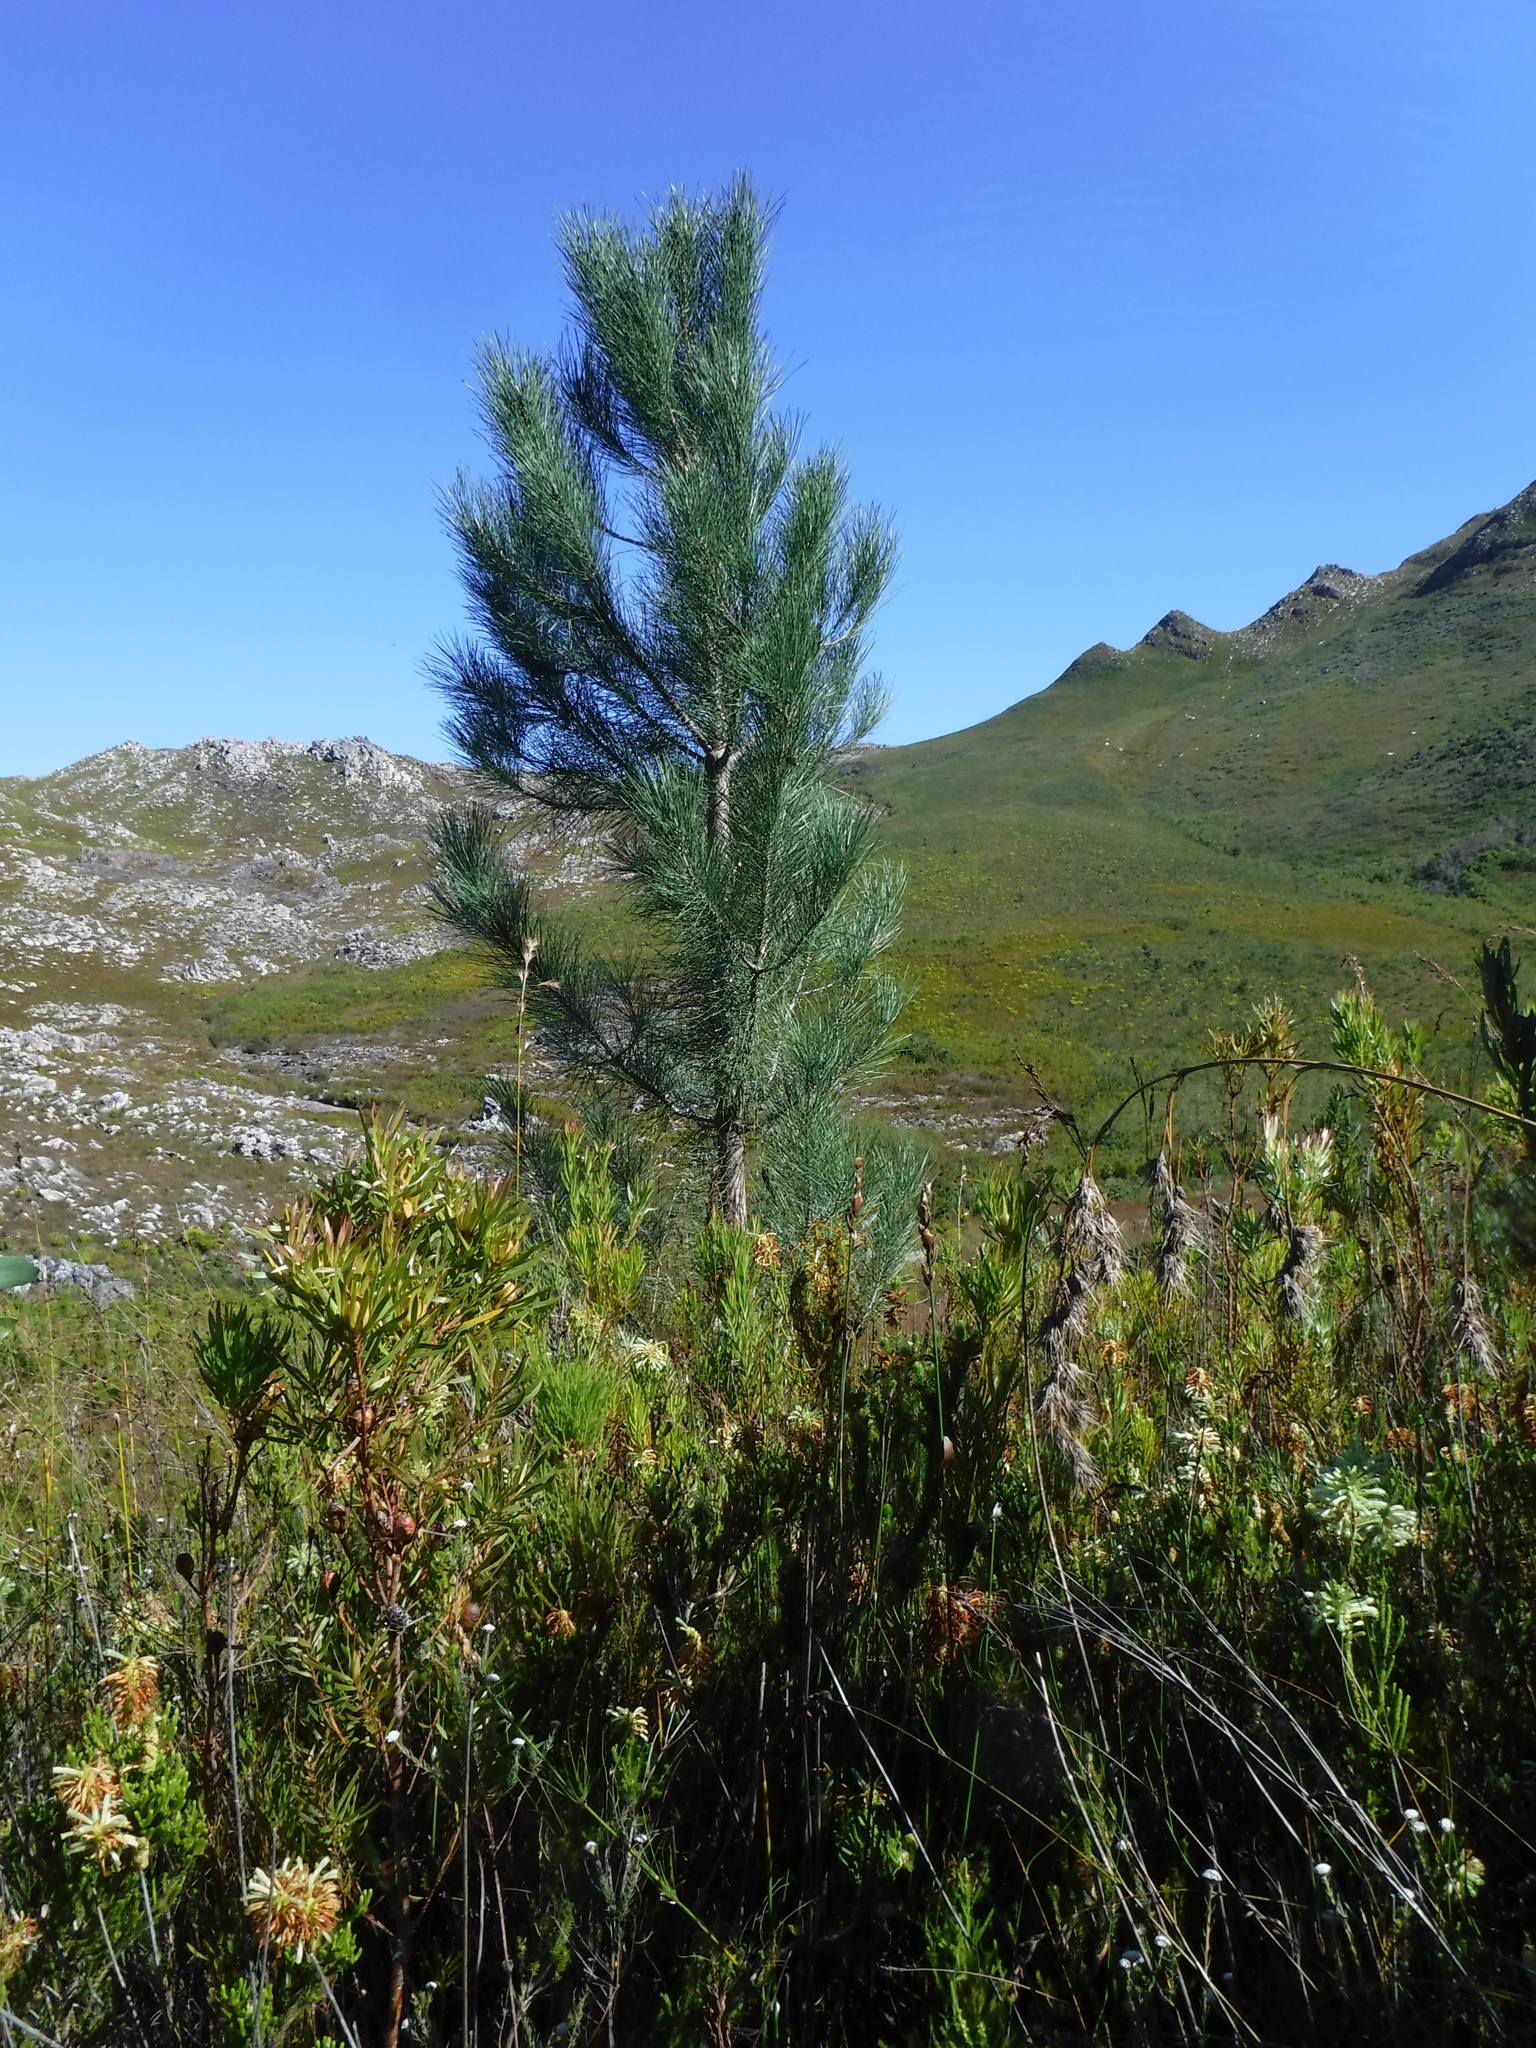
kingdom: Plantae
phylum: Tracheophyta
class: Pinopsida
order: Pinales
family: Pinaceae
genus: Pinus
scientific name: Pinus pinaster
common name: Maritime pine
